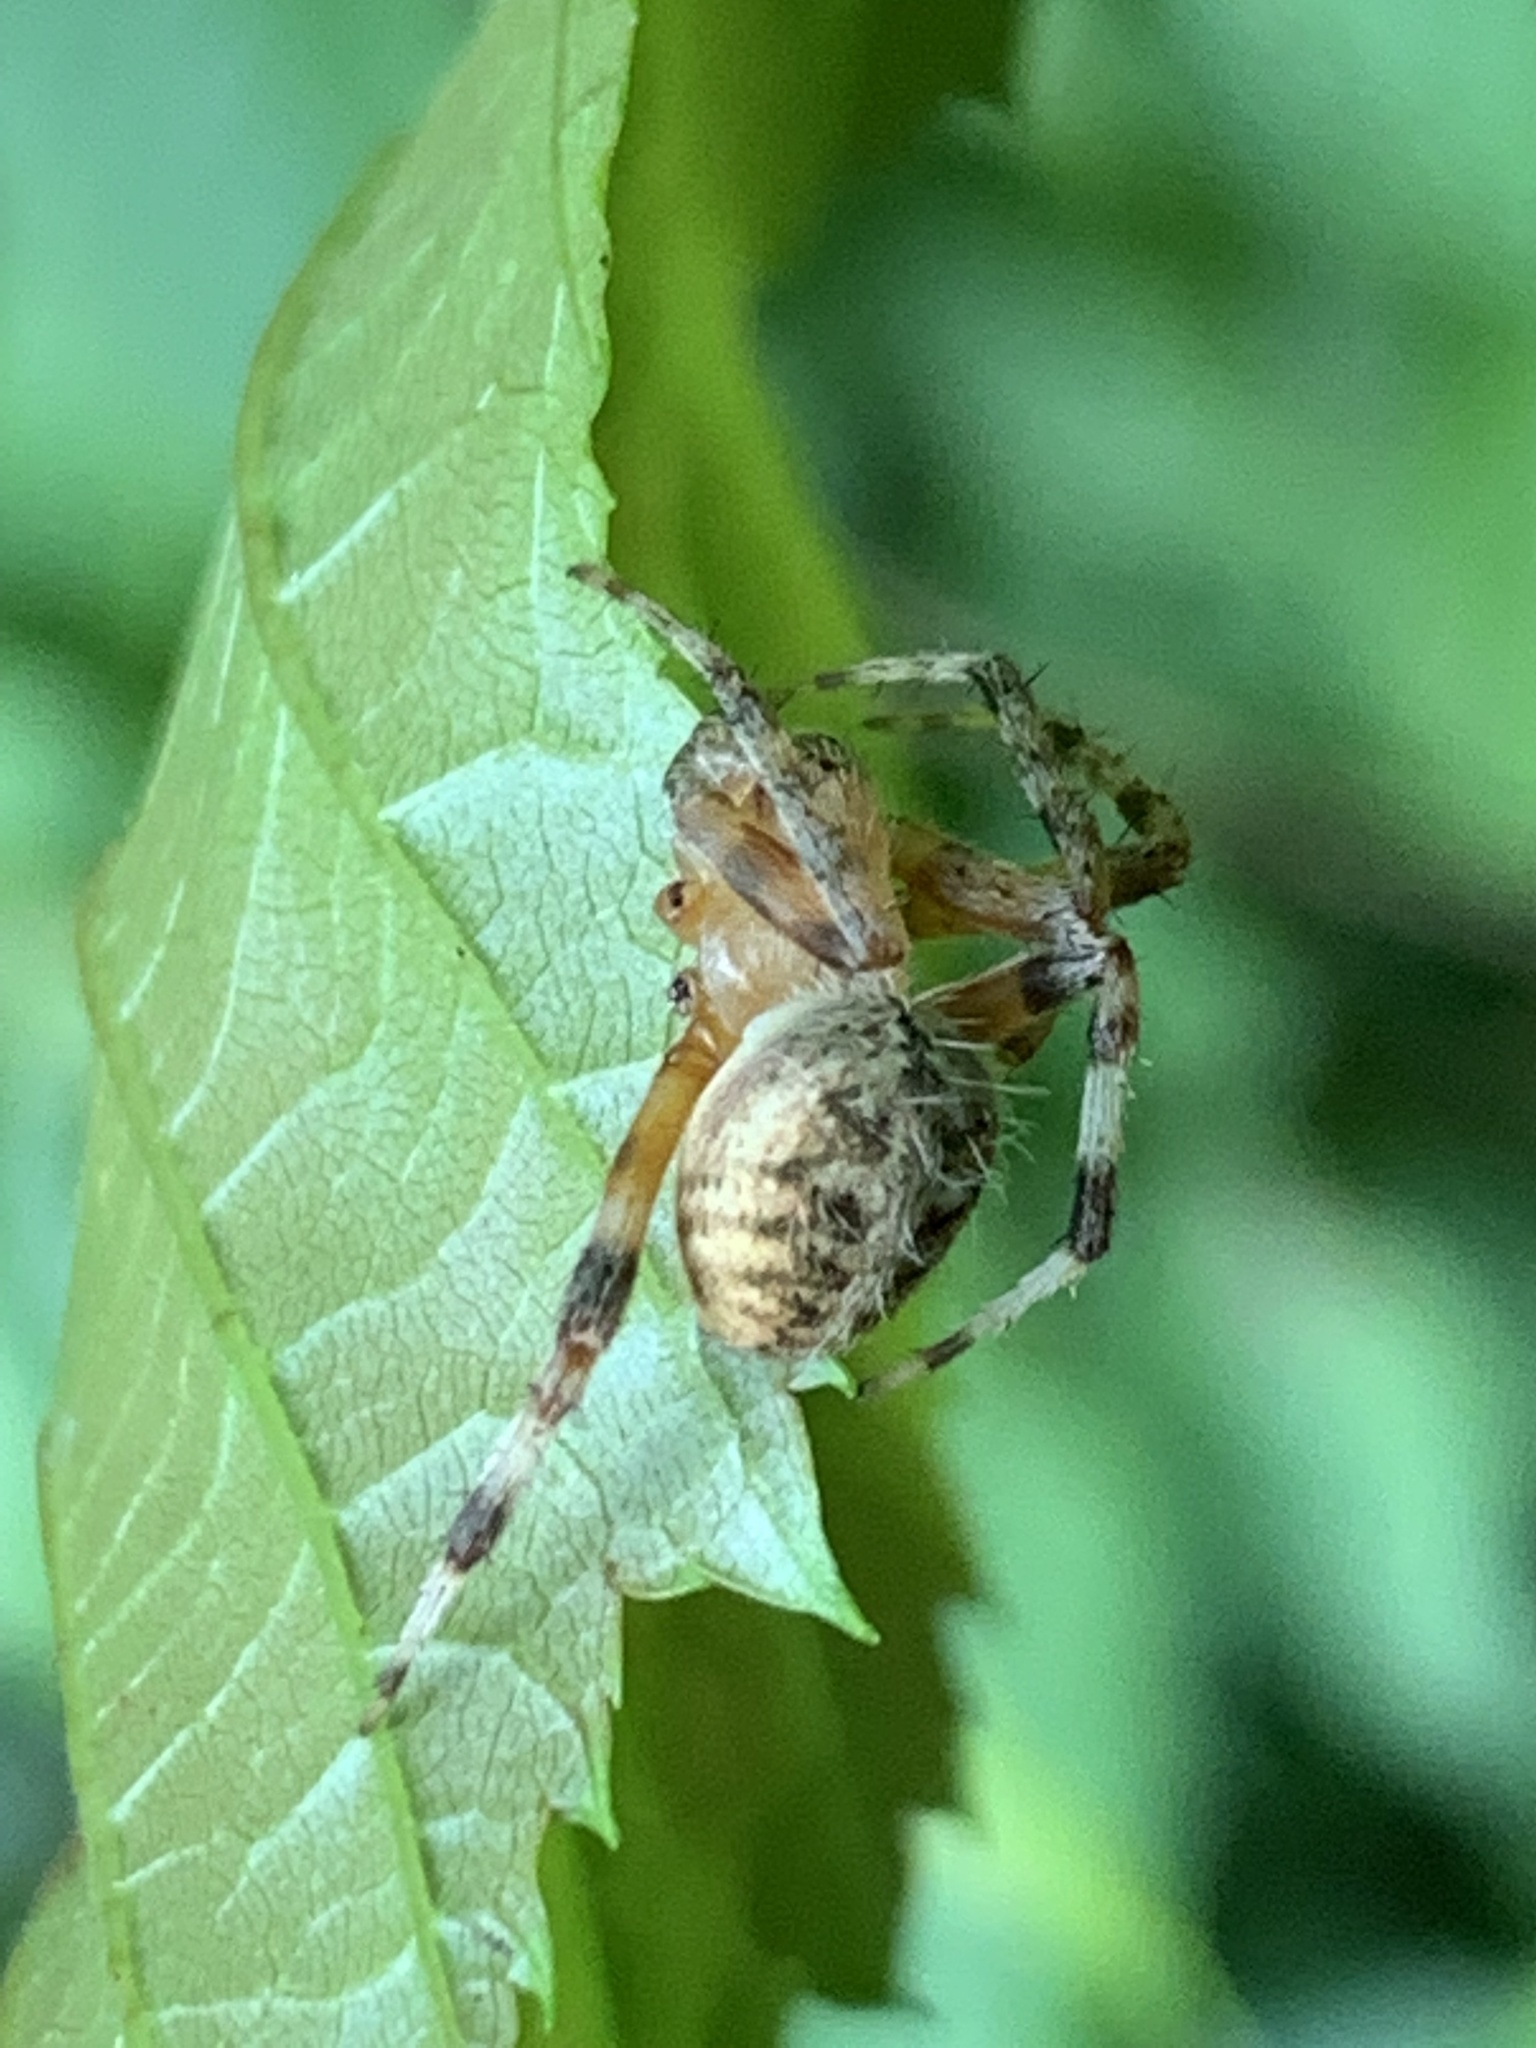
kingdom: Animalia
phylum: Arthropoda
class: Arachnida
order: Araneae
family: Araneidae
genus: Neoscona
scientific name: Neoscona crucifera
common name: Spotted orbweaver
